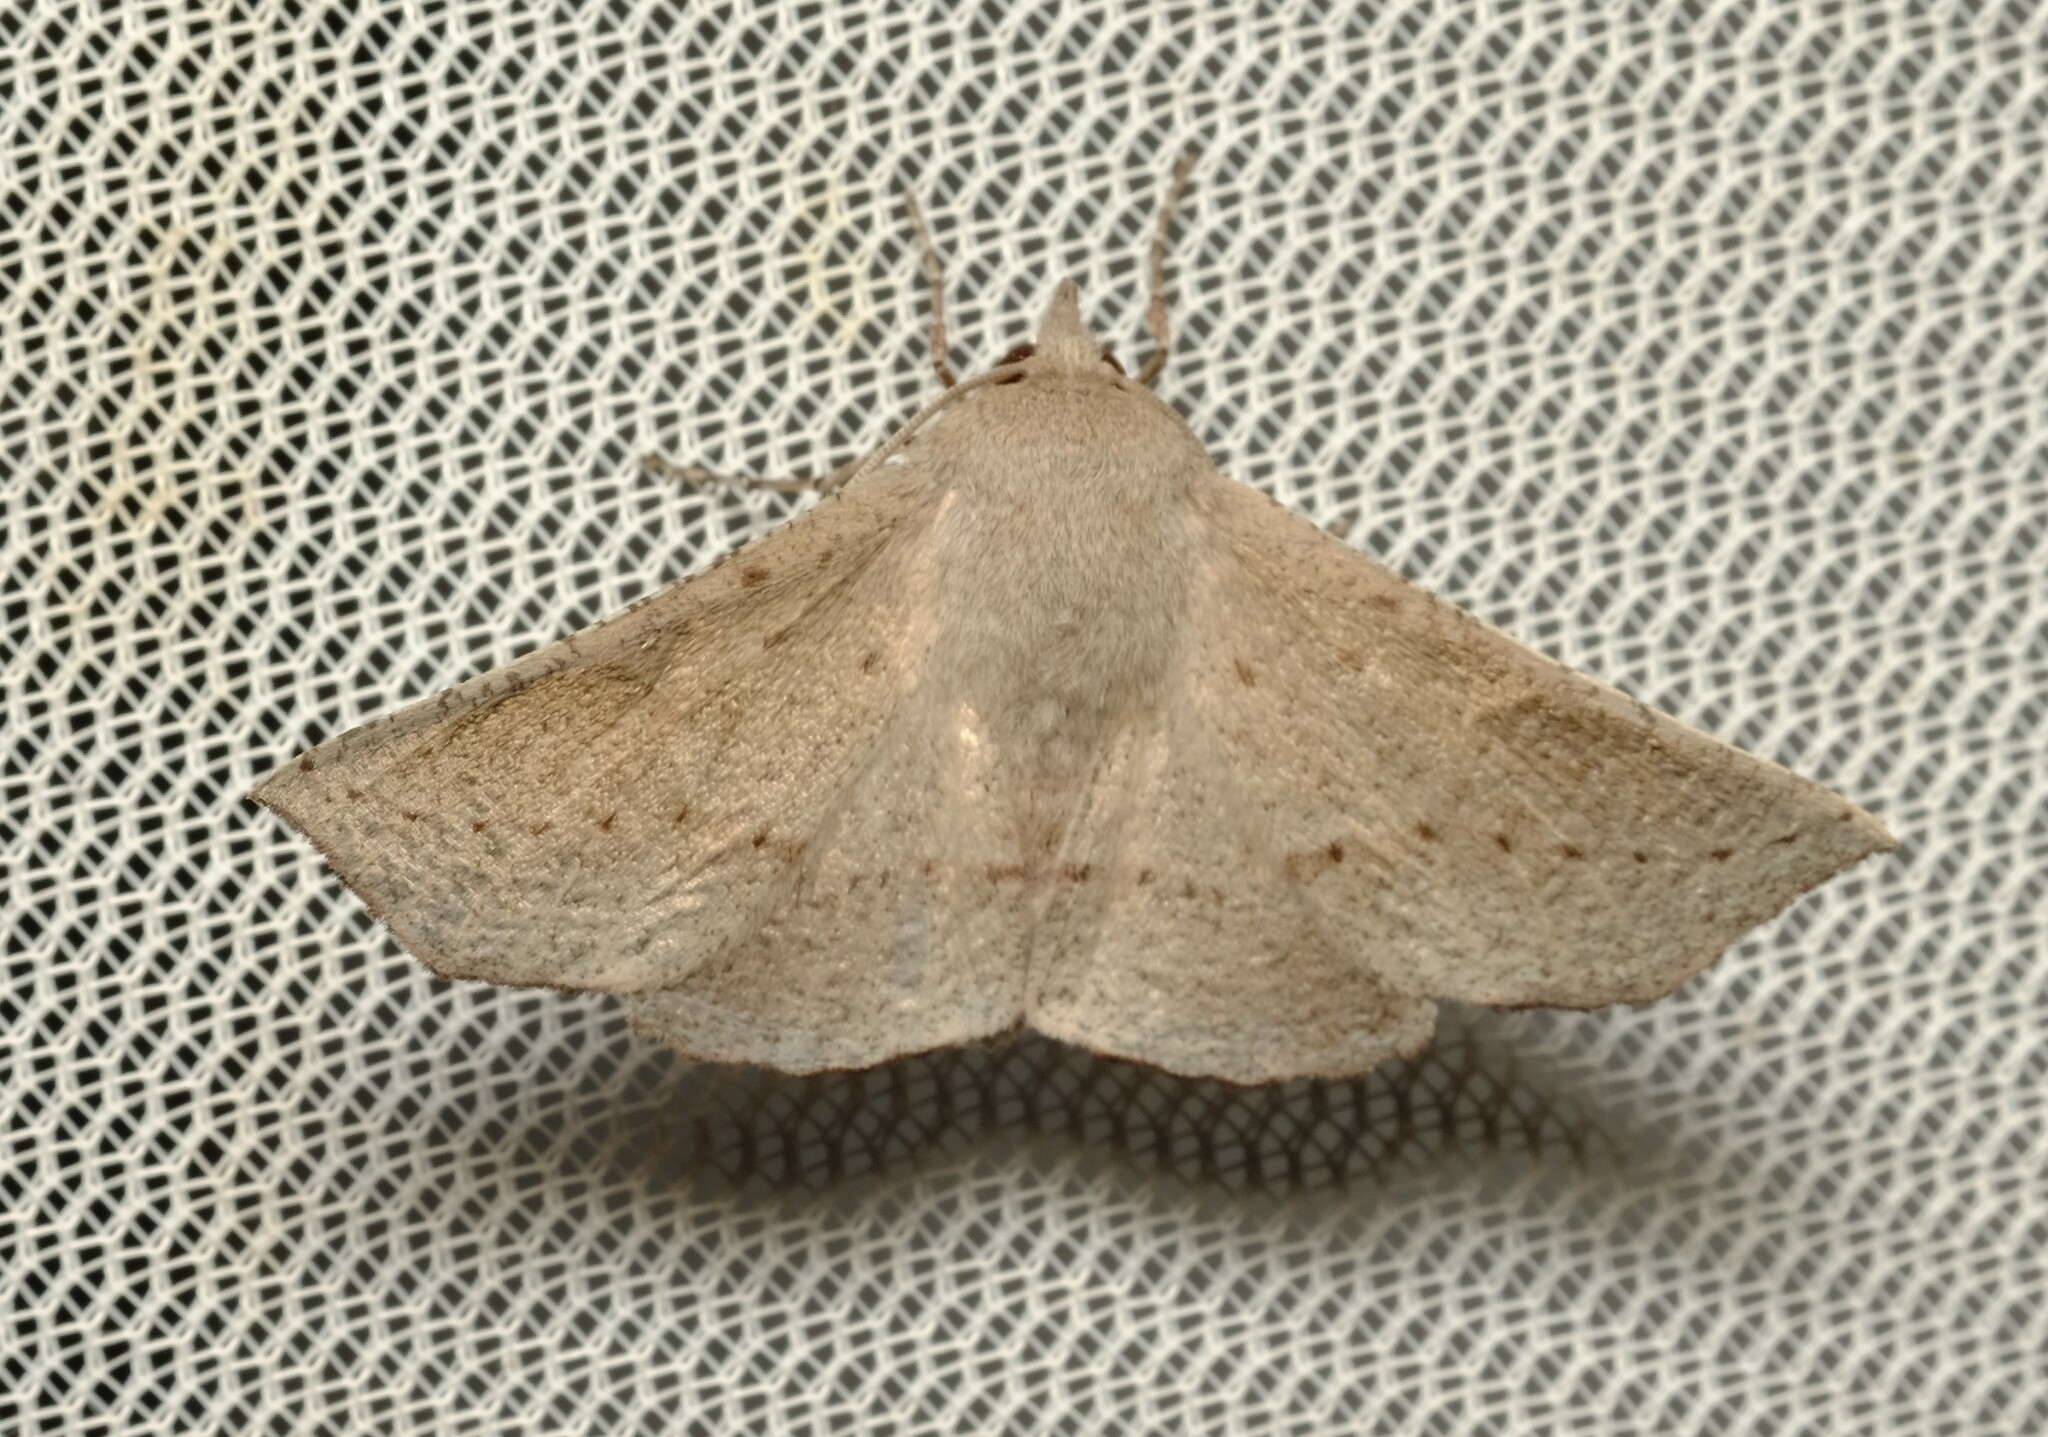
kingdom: Animalia
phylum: Arthropoda
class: Insecta
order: Lepidoptera
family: Geometridae
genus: Oenochroma
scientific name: Oenochroma subustaria
